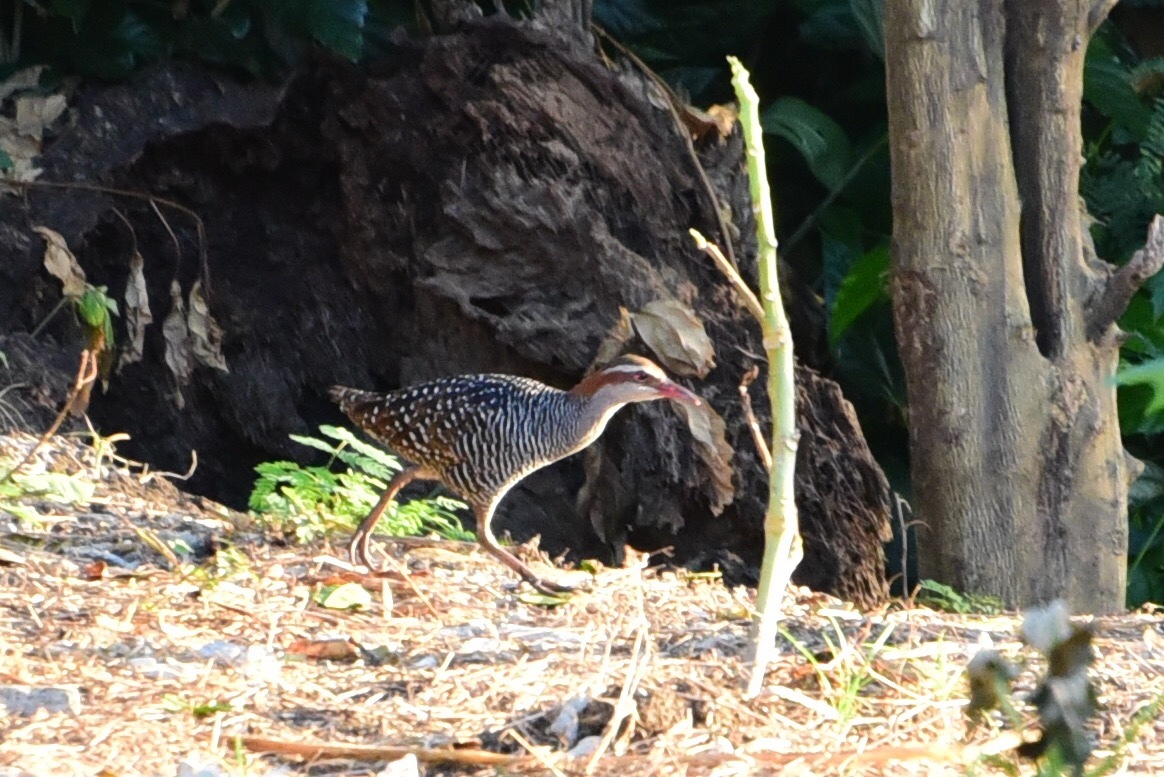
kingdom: Animalia
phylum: Chordata
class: Aves
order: Gruiformes
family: Rallidae
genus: Gallirallus
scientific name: Gallirallus philippensis
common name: Buff-banded rail
